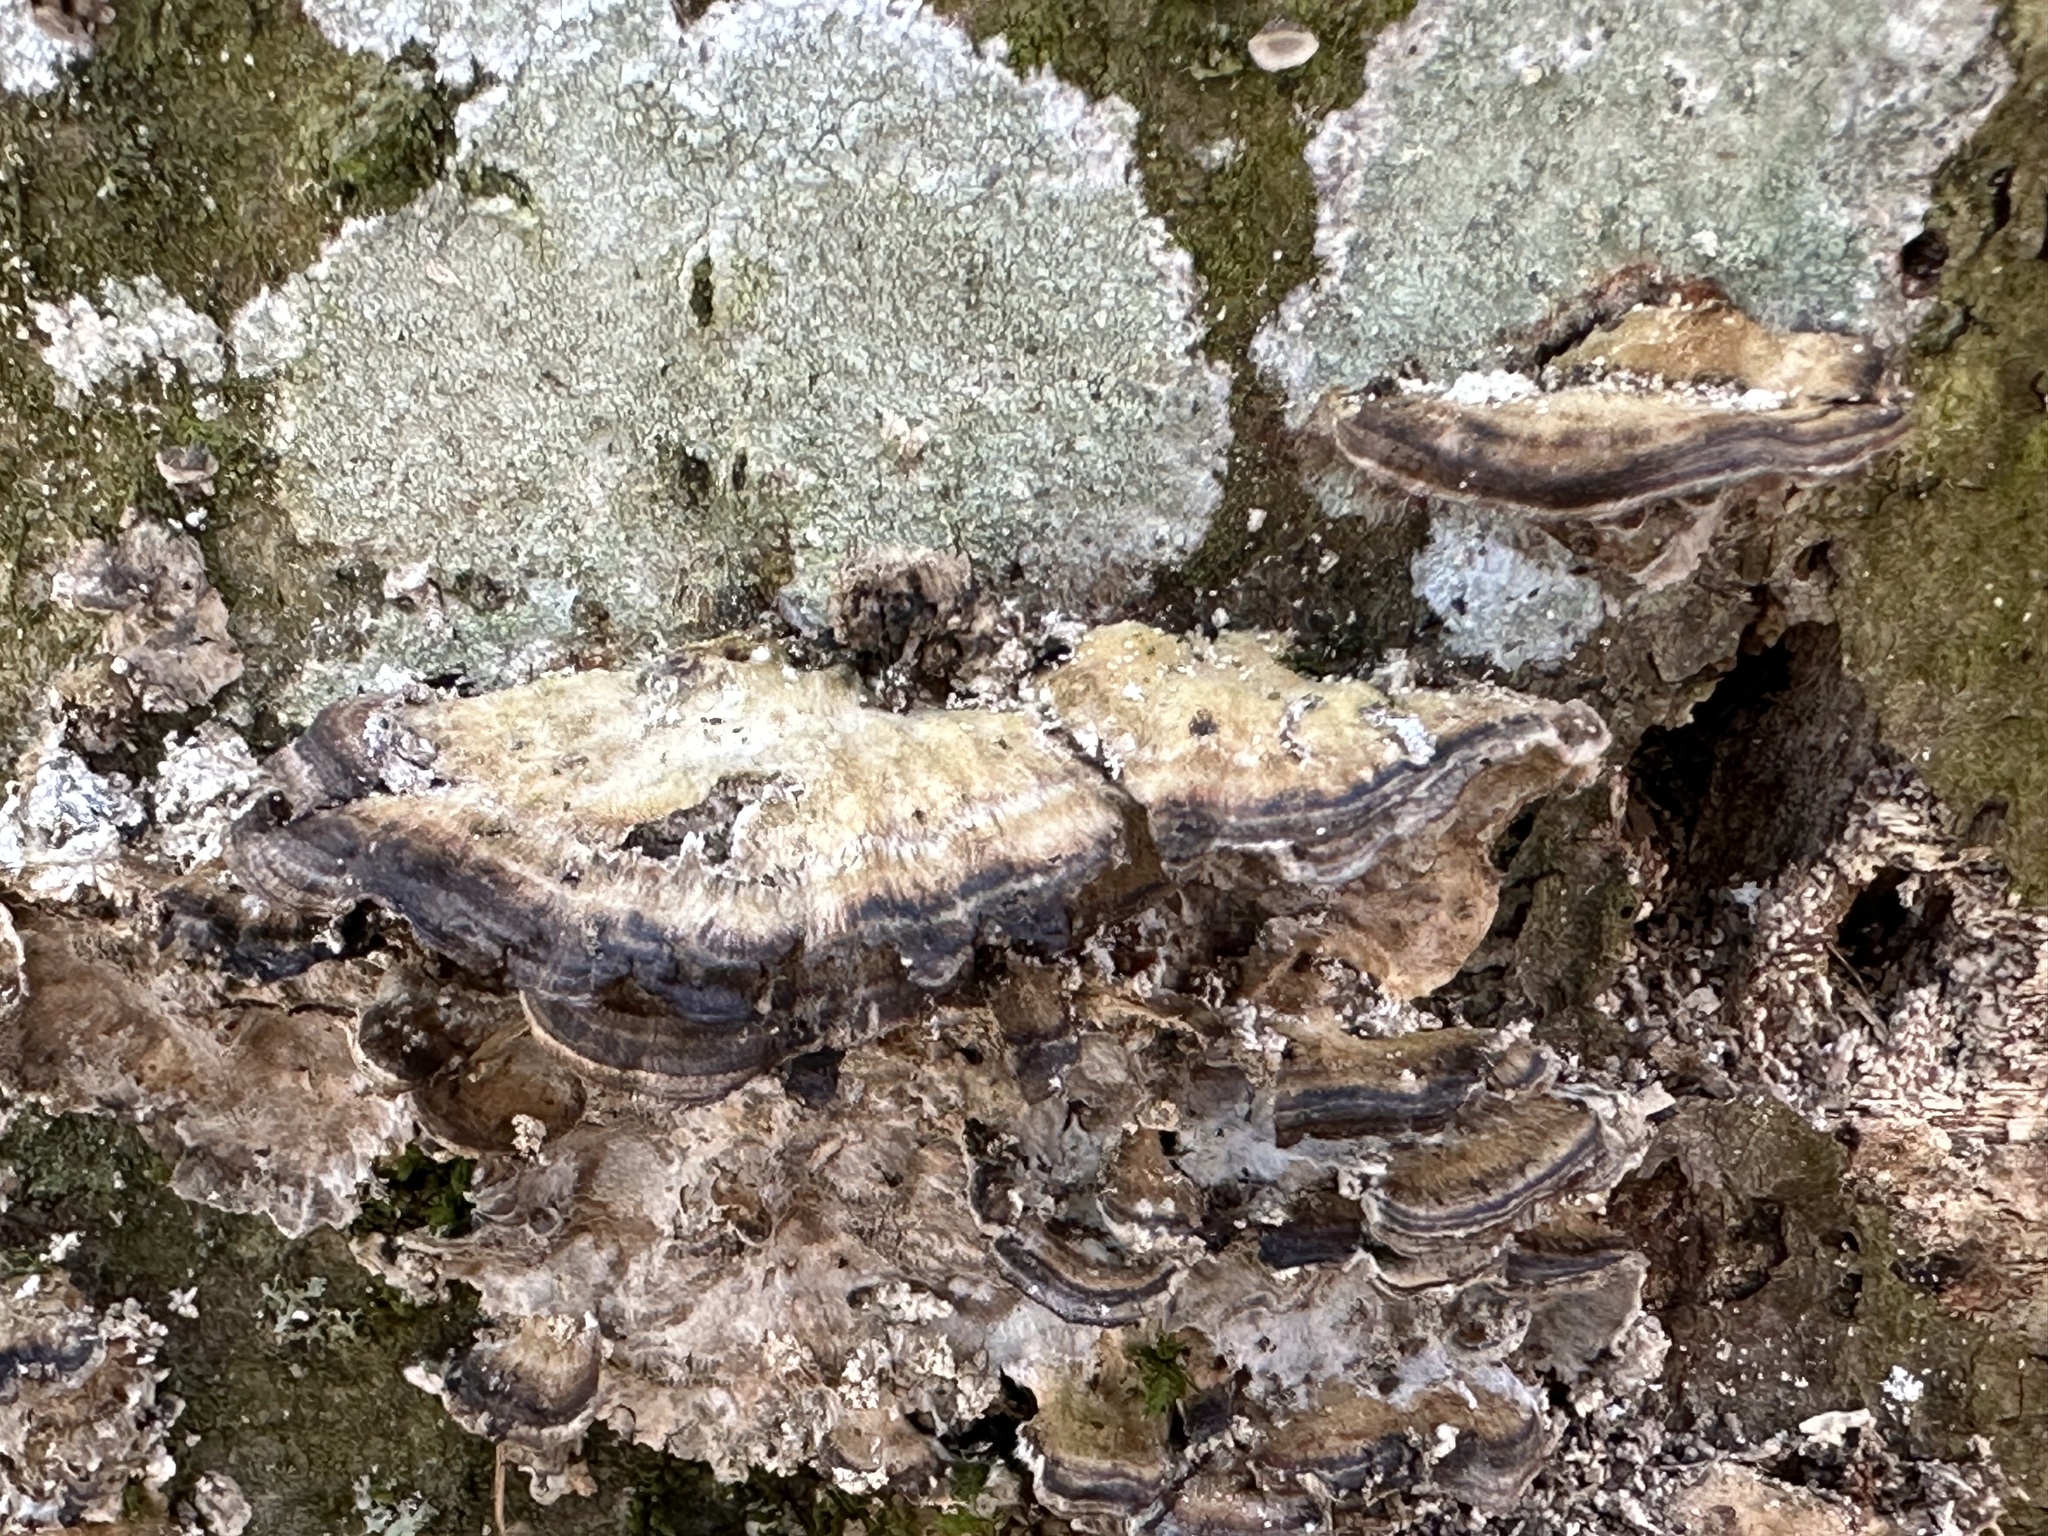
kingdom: Fungi
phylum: Basidiomycota
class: Agaricomycetes
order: Polyporales
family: Phanerochaetaceae
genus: Bjerkandera
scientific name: Bjerkandera adusta
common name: Smoky bracket
